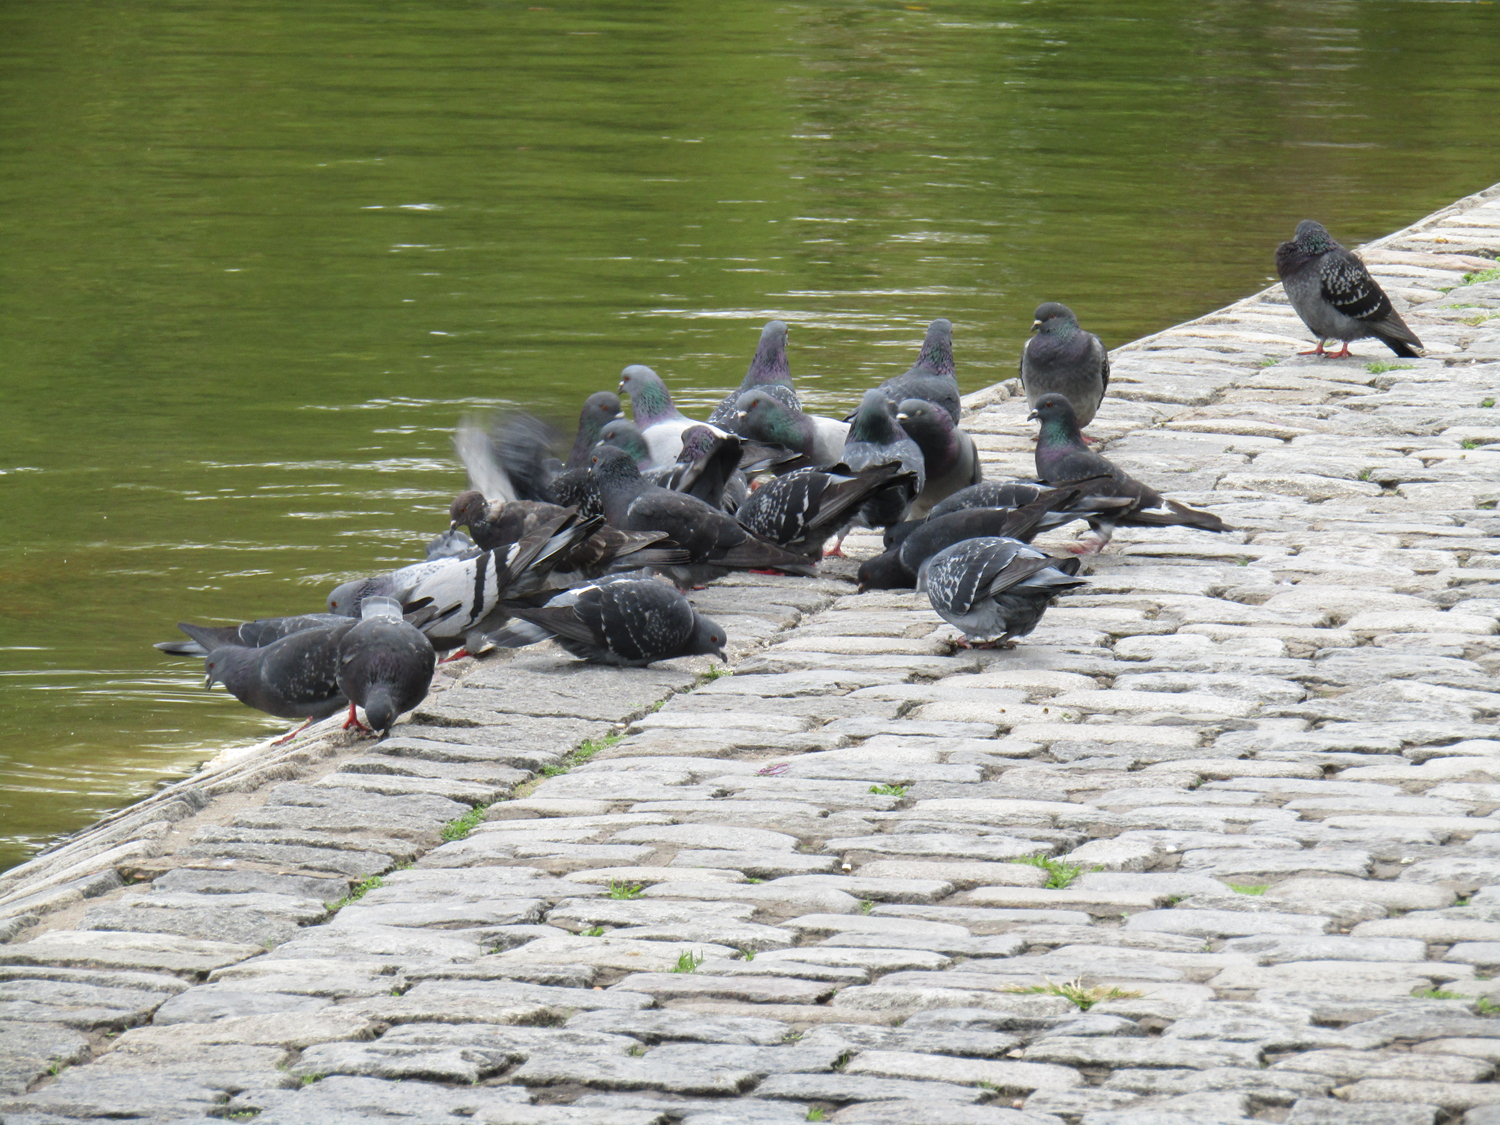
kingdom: Animalia
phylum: Chordata
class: Aves
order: Columbiformes
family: Columbidae
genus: Columba
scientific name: Columba livia
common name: Rock pigeon
